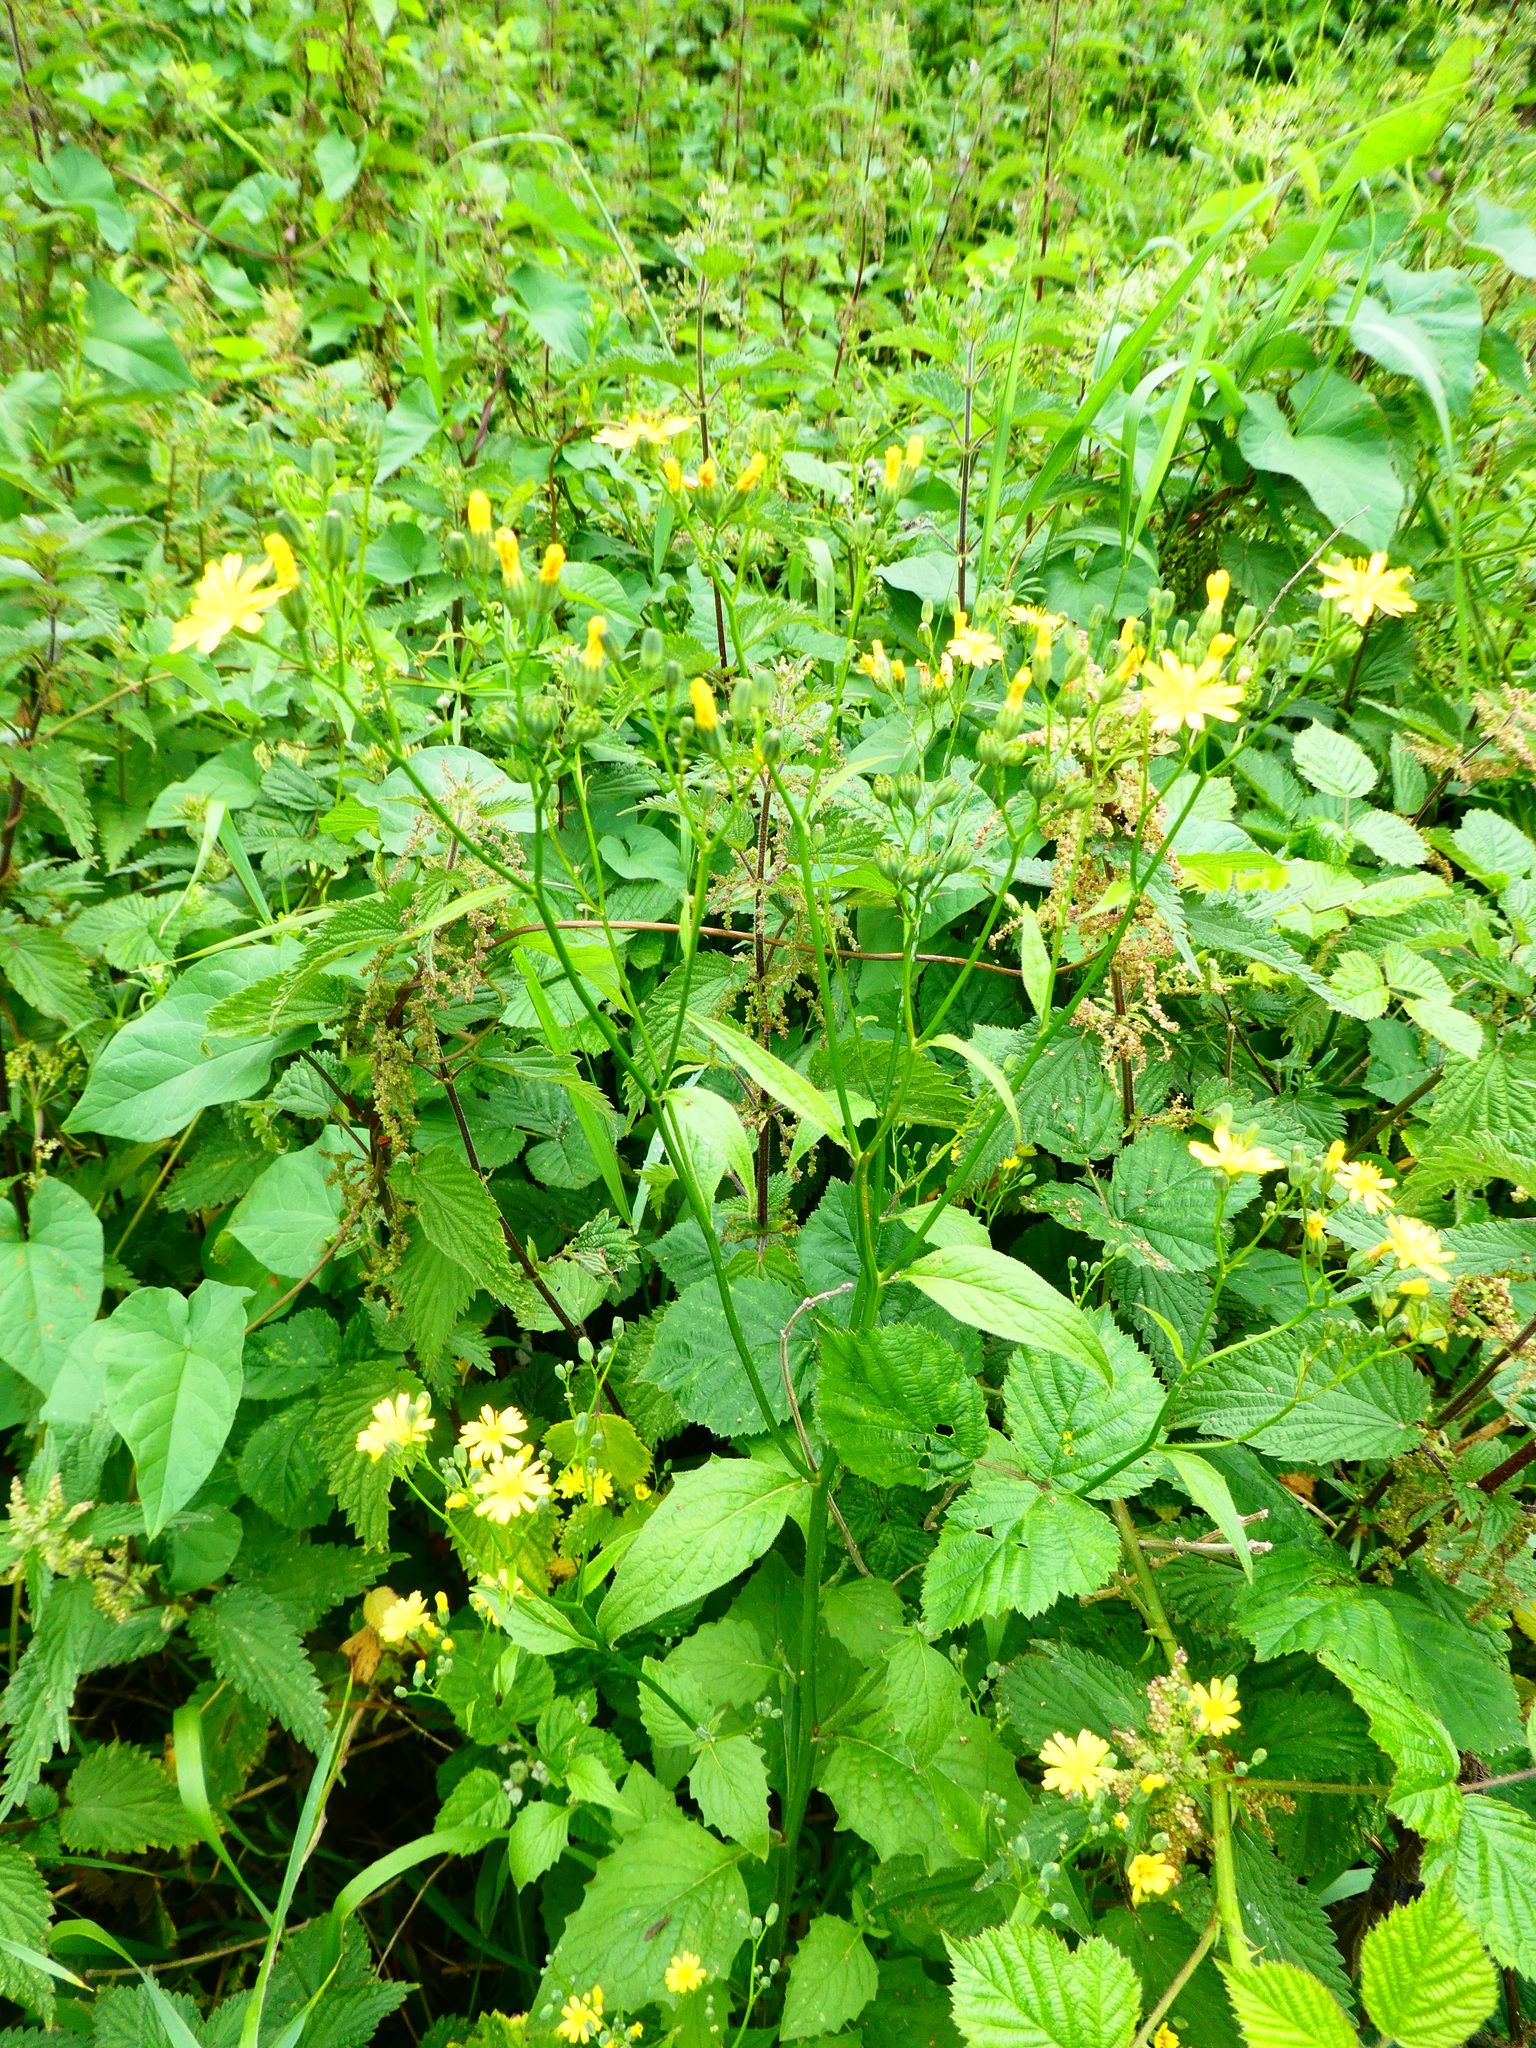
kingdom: Plantae
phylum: Tracheophyta
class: Magnoliopsida
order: Asterales
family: Asteraceae
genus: Lapsana
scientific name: Lapsana communis
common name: Nipplewort
